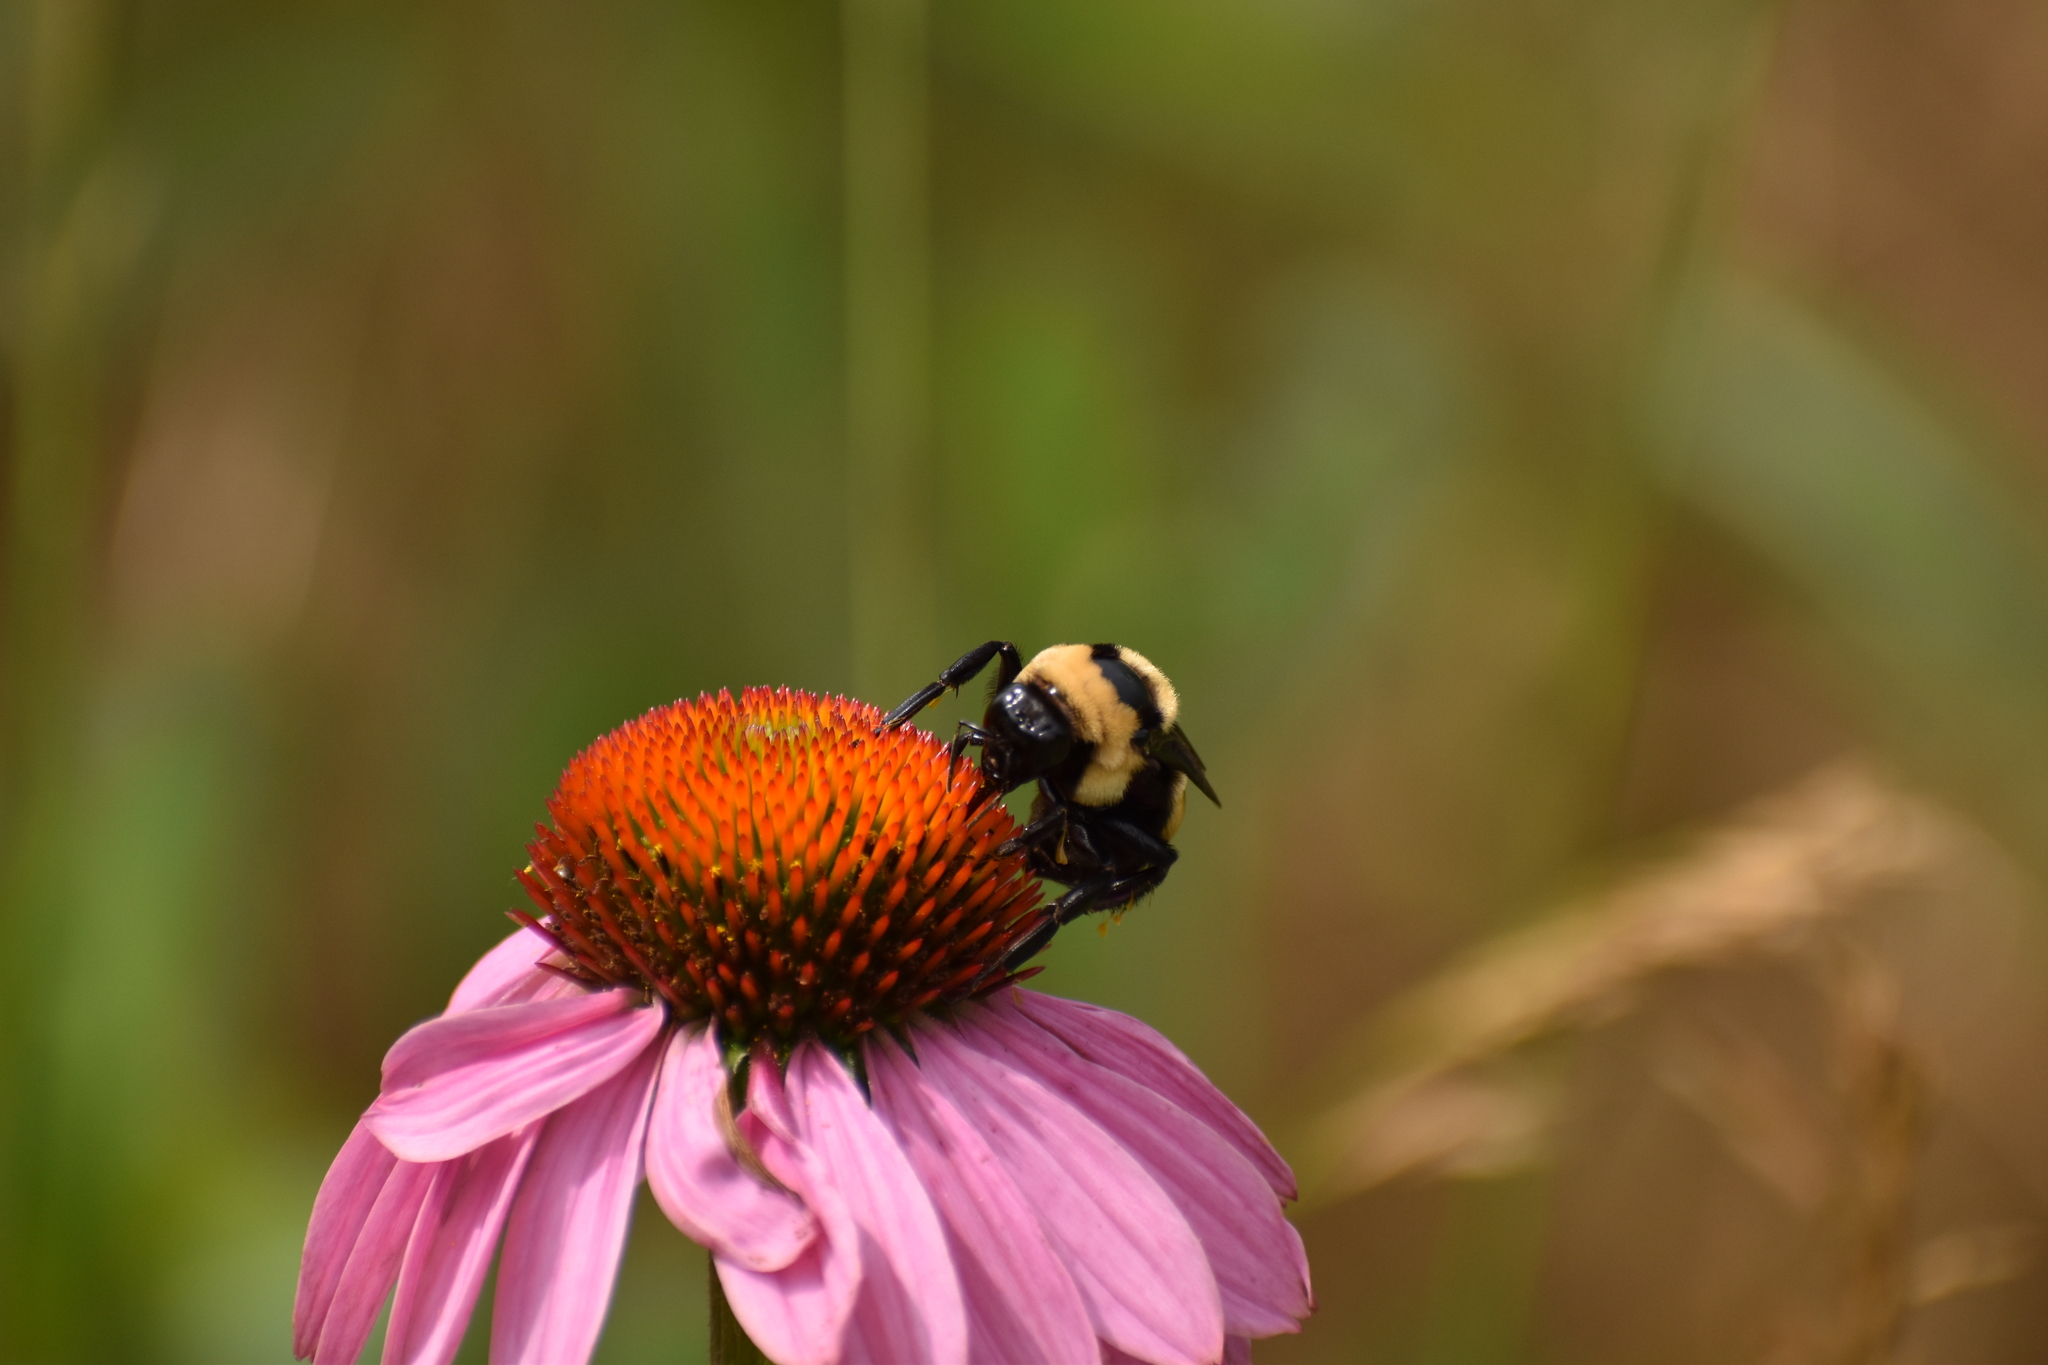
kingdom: Animalia
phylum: Arthropoda
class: Insecta
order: Hymenoptera
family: Apidae
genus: Bombus
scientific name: Bombus fraternus
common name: Southern plains bumble bee
